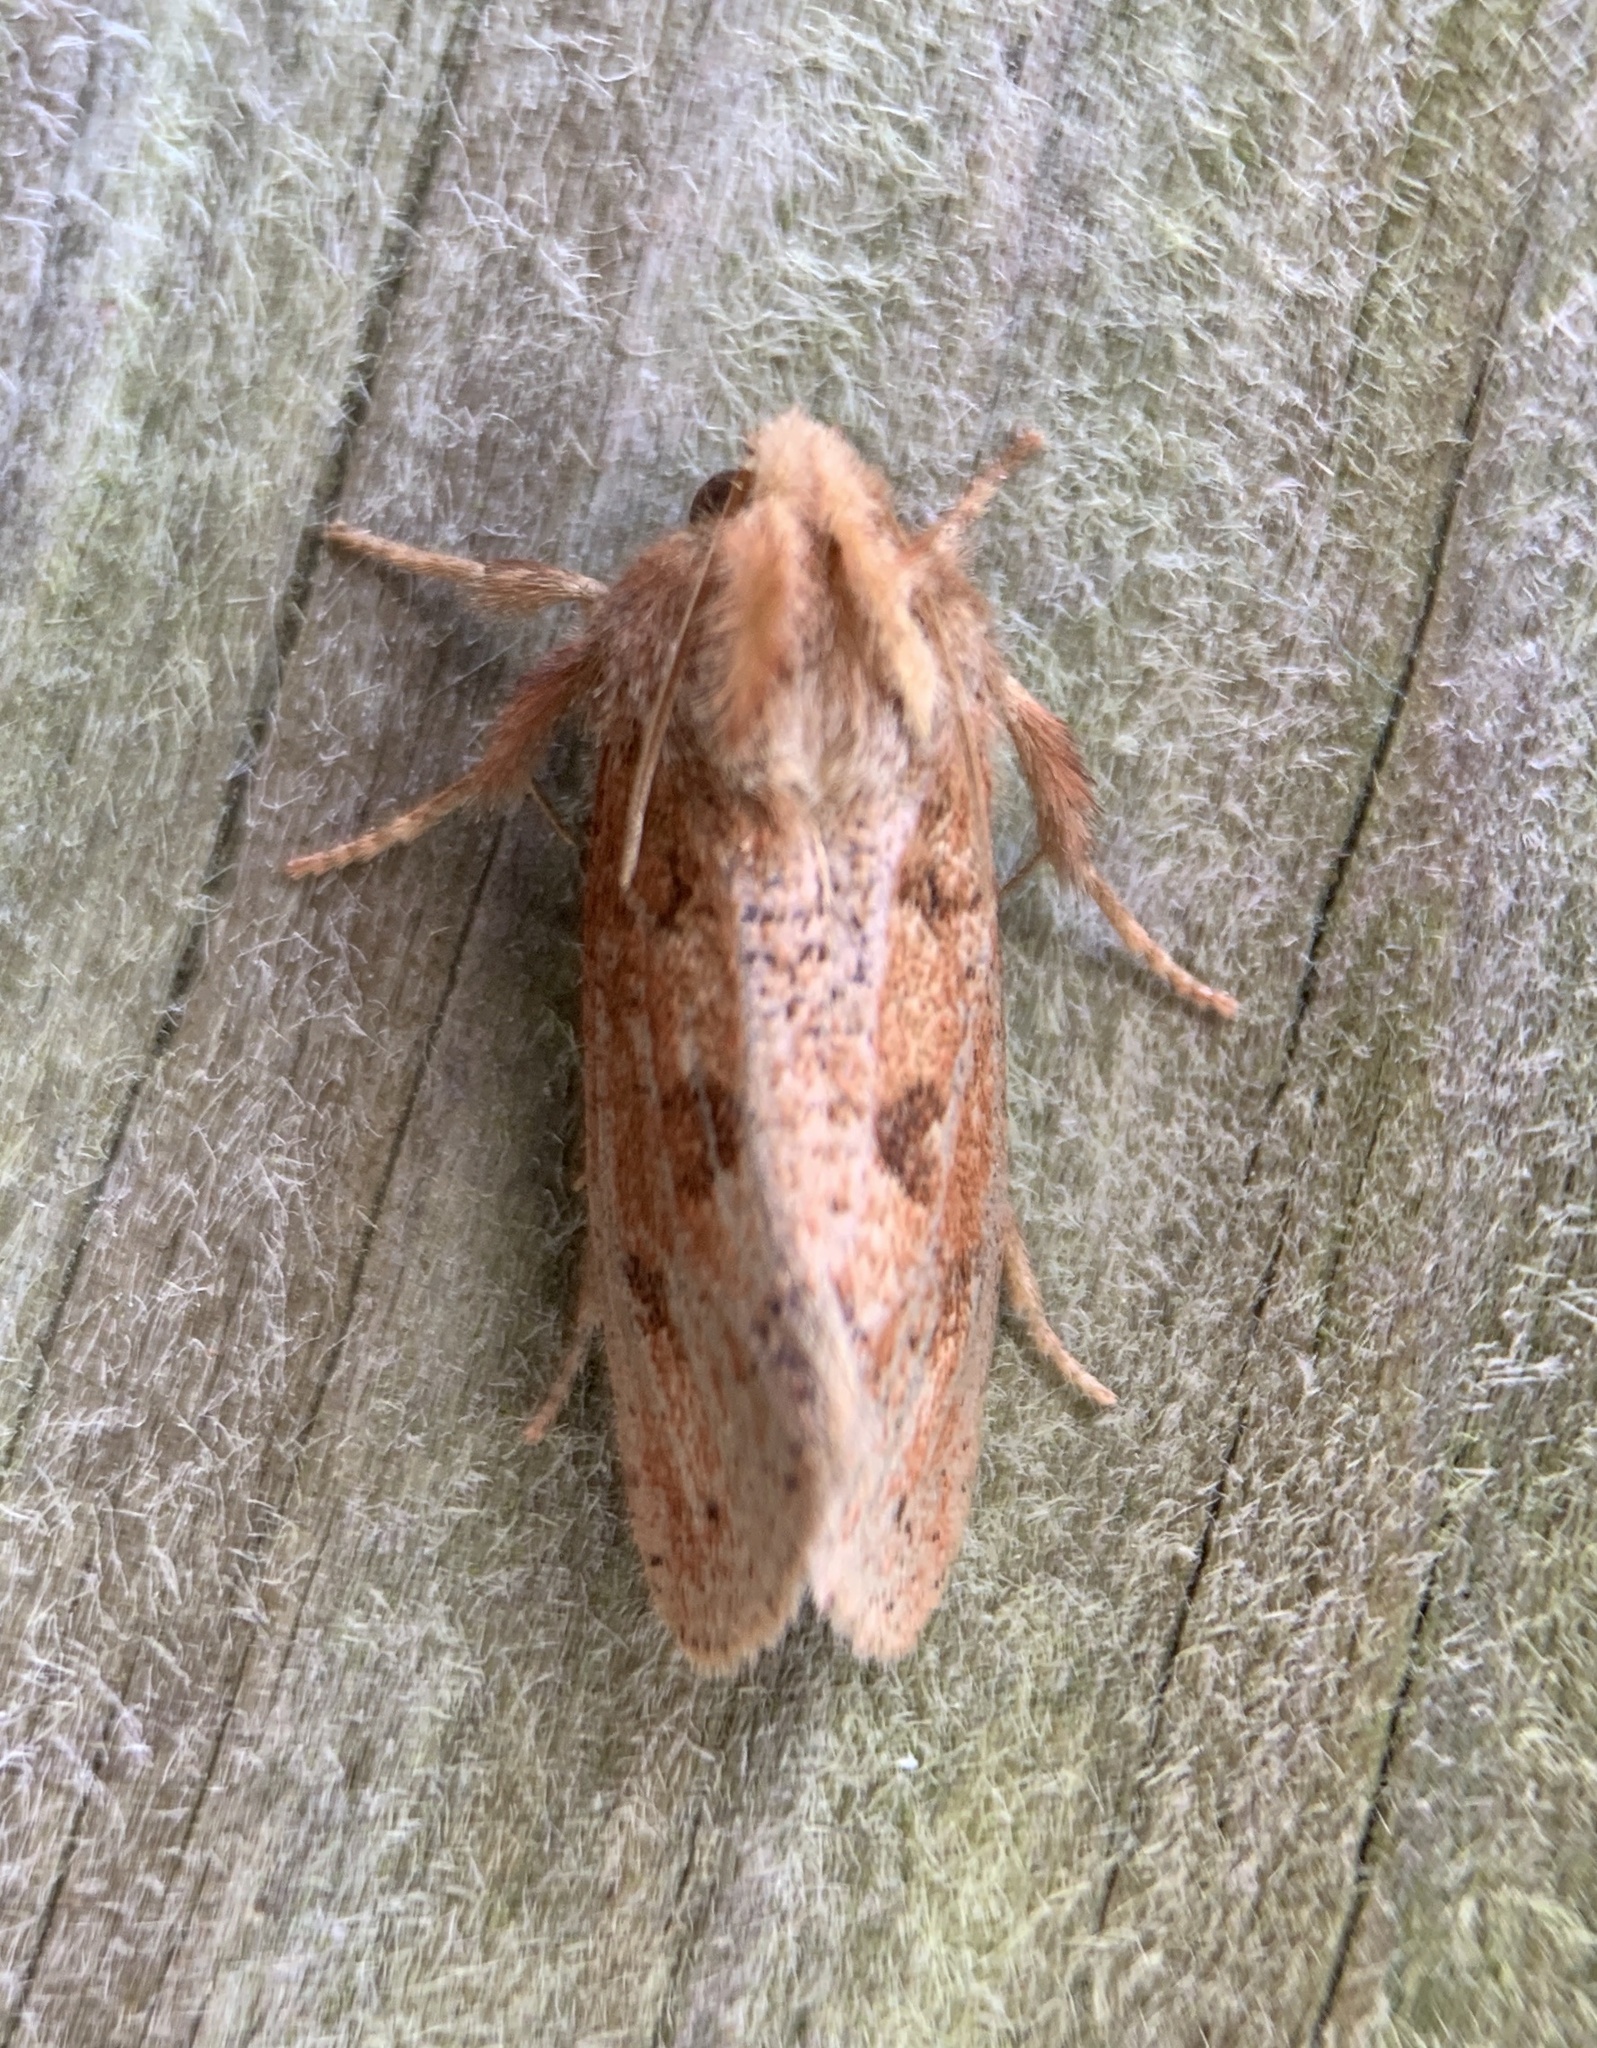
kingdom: Animalia
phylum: Arthropoda
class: Insecta
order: Lepidoptera
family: Tineidae
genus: Acrolophus
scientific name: Acrolophus plumifrontella
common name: Eastern grass tubeworm moth
